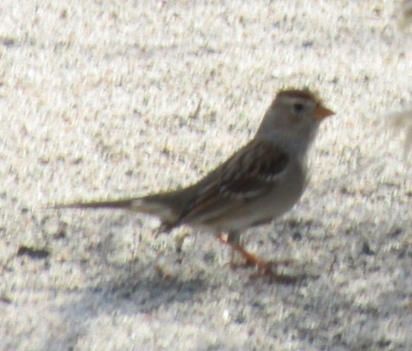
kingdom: Animalia
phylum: Chordata
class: Aves
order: Passeriformes
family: Passerellidae
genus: Zonotrichia
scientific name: Zonotrichia leucophrys
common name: White-crowned sparrow
